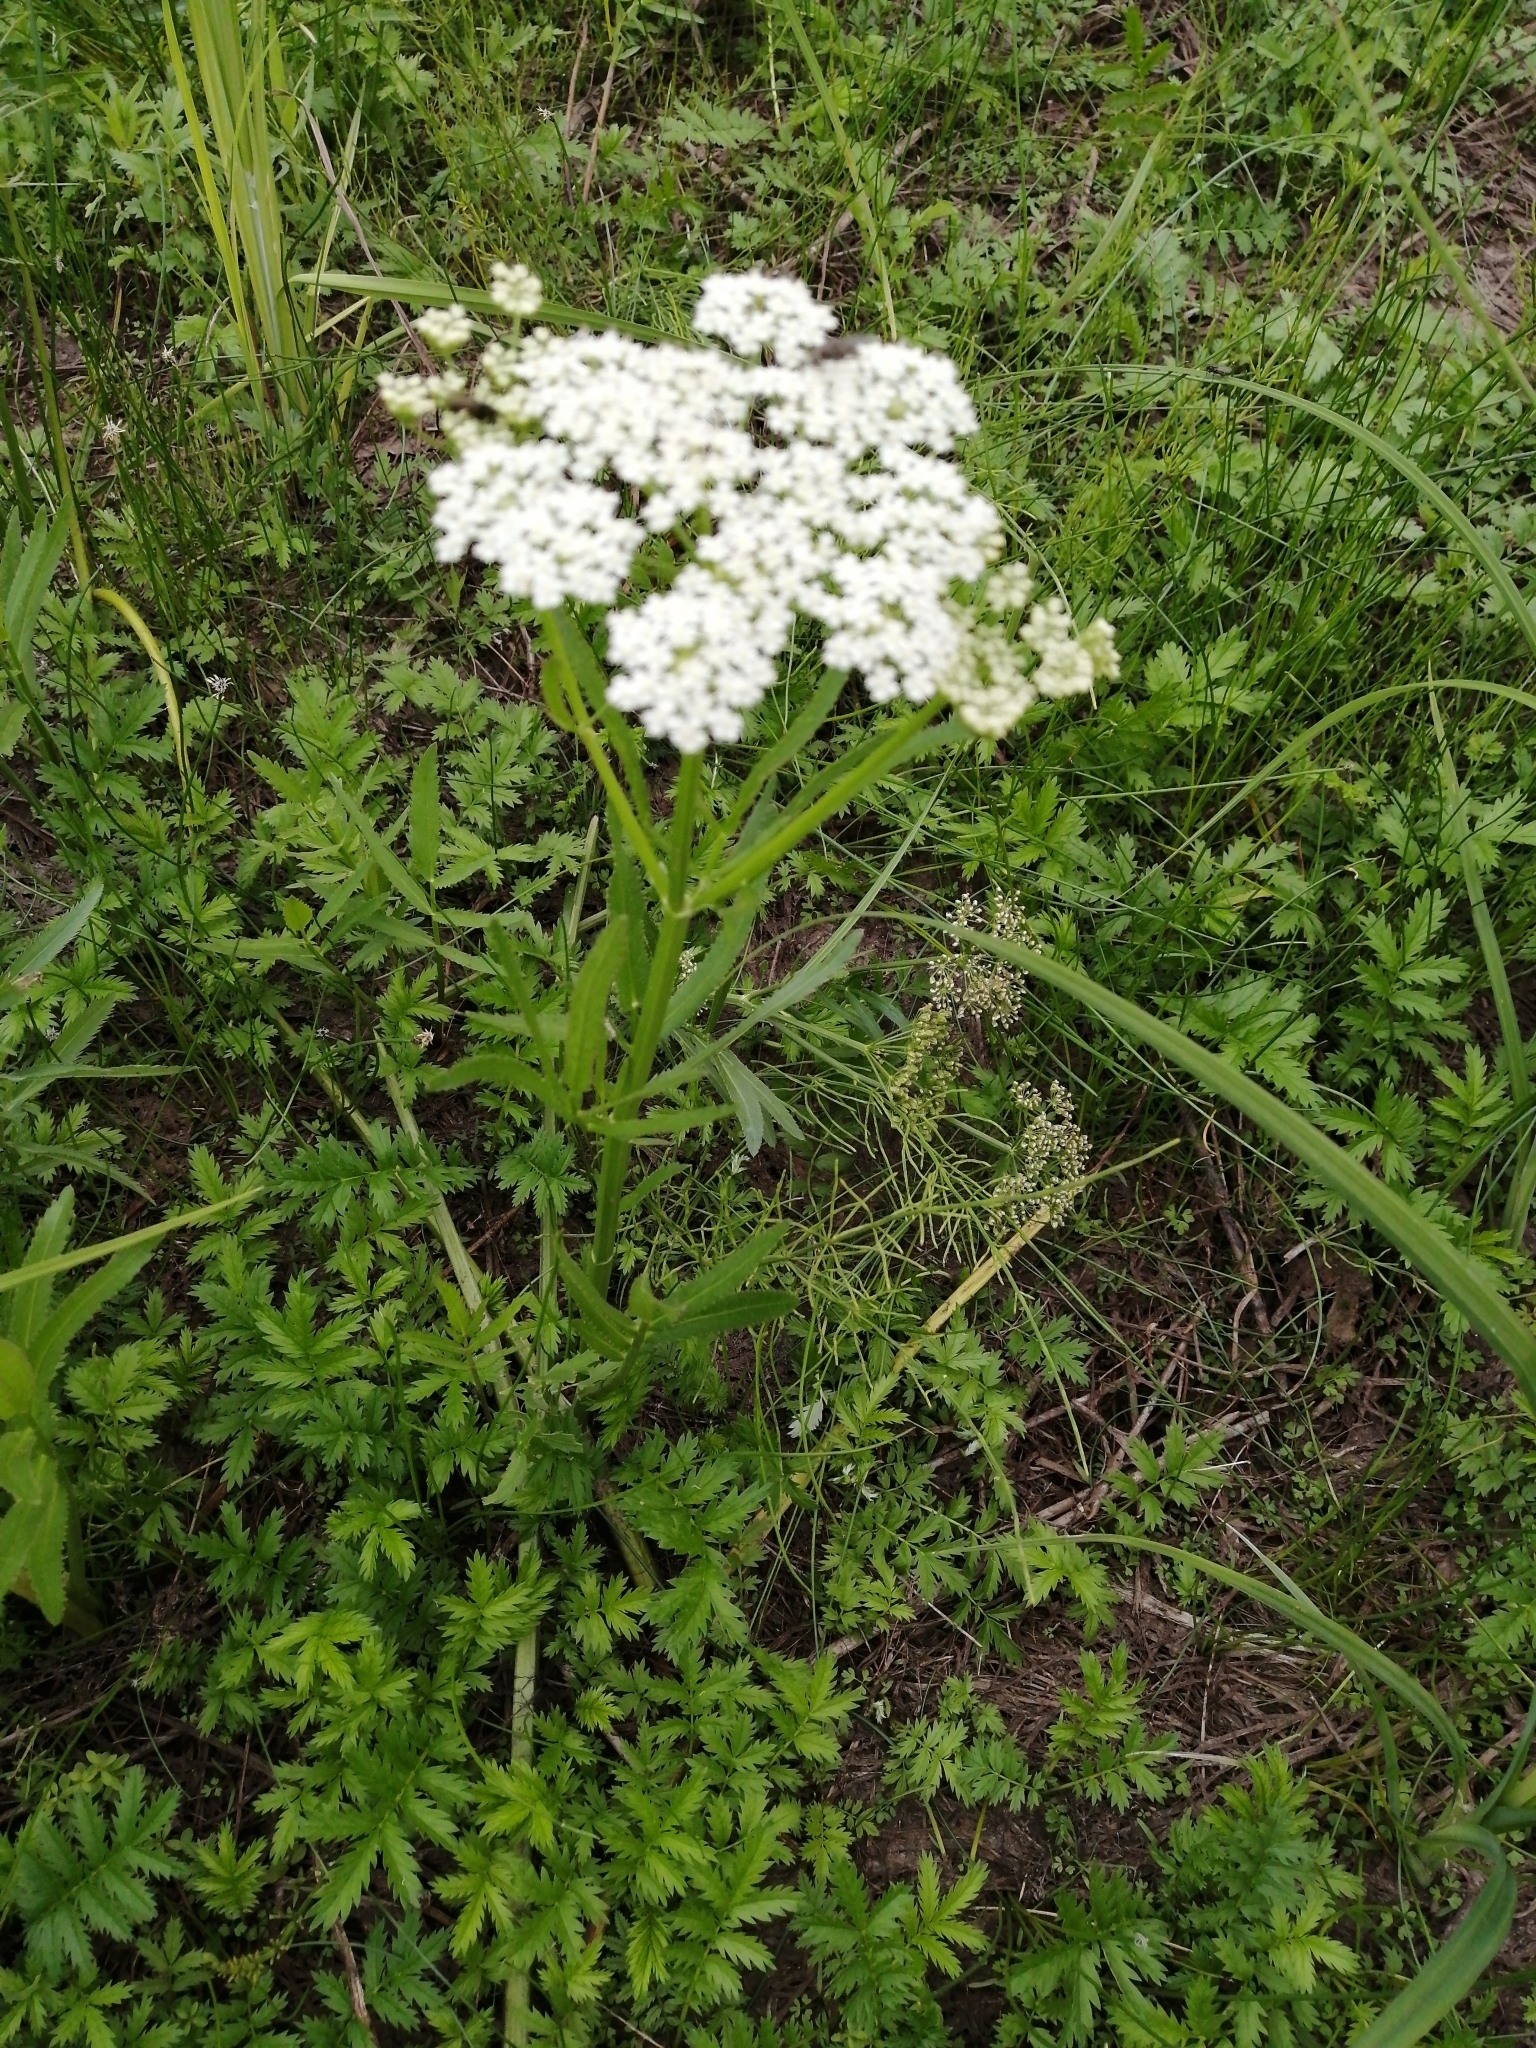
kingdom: Plantae
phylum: Tracheophyta
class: Magnoliopsida
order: Apiales
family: Apiaceae
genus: Sium
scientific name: Sium latifolium
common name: Greater water-parsnip
